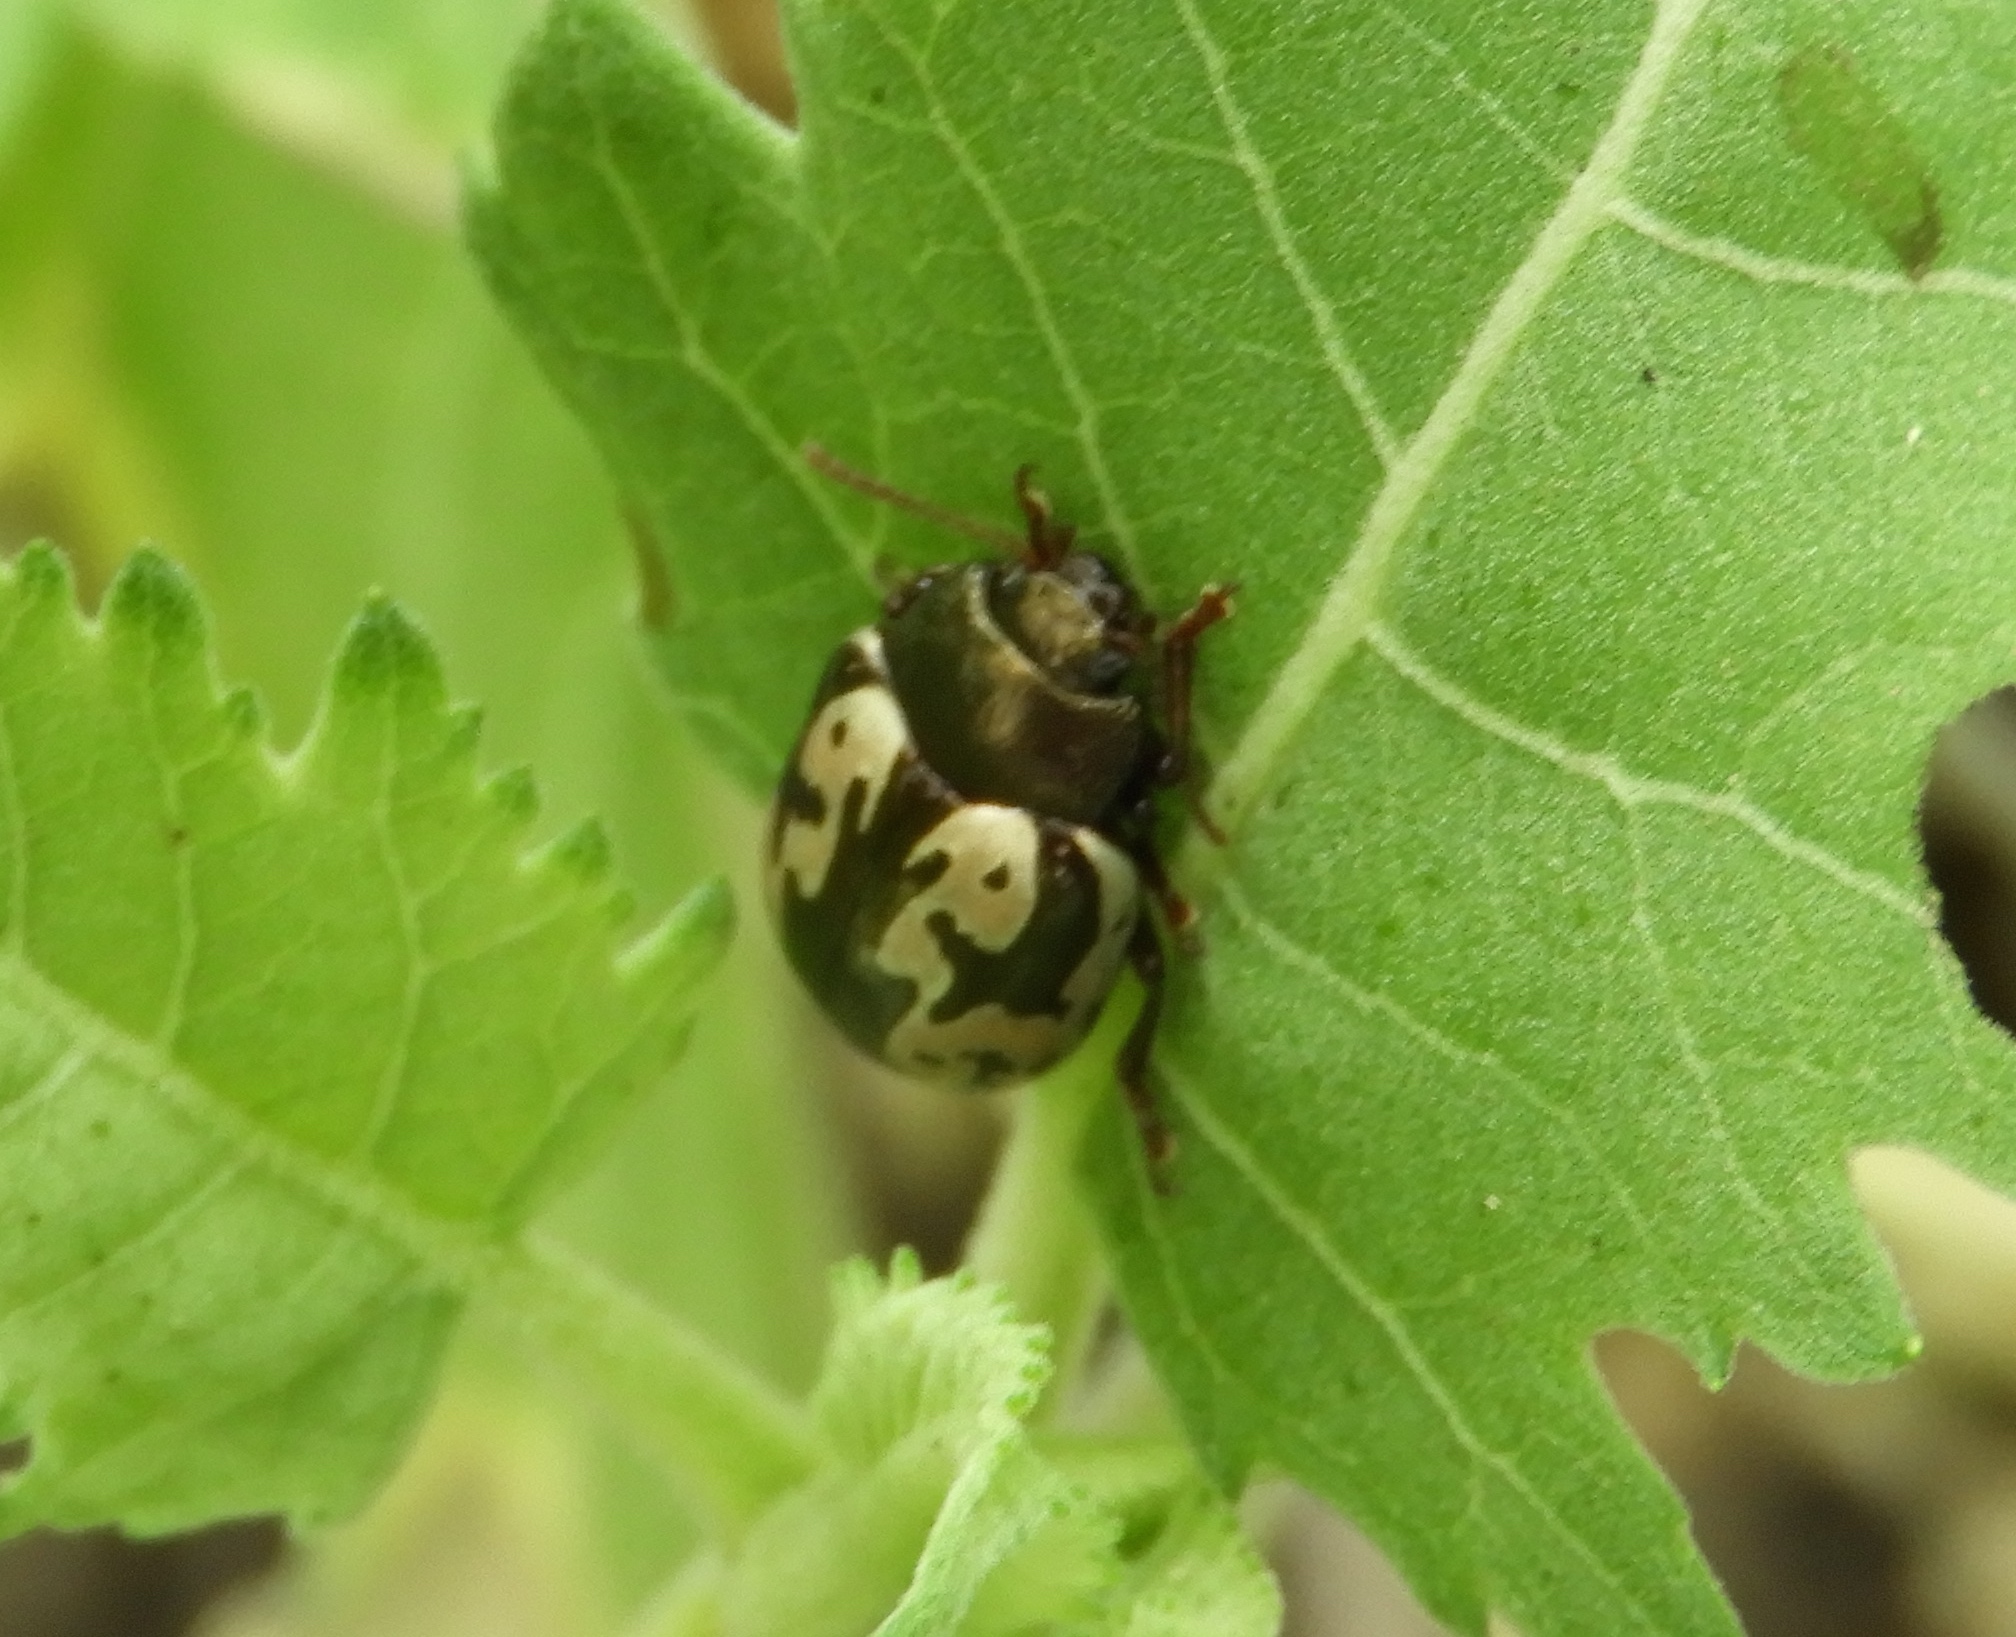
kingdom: Animalia
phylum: Arthropoda
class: Insecta
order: Coleoptera
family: Chrysomelidae
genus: Calligrapha
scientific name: Calligrapha intermedia
